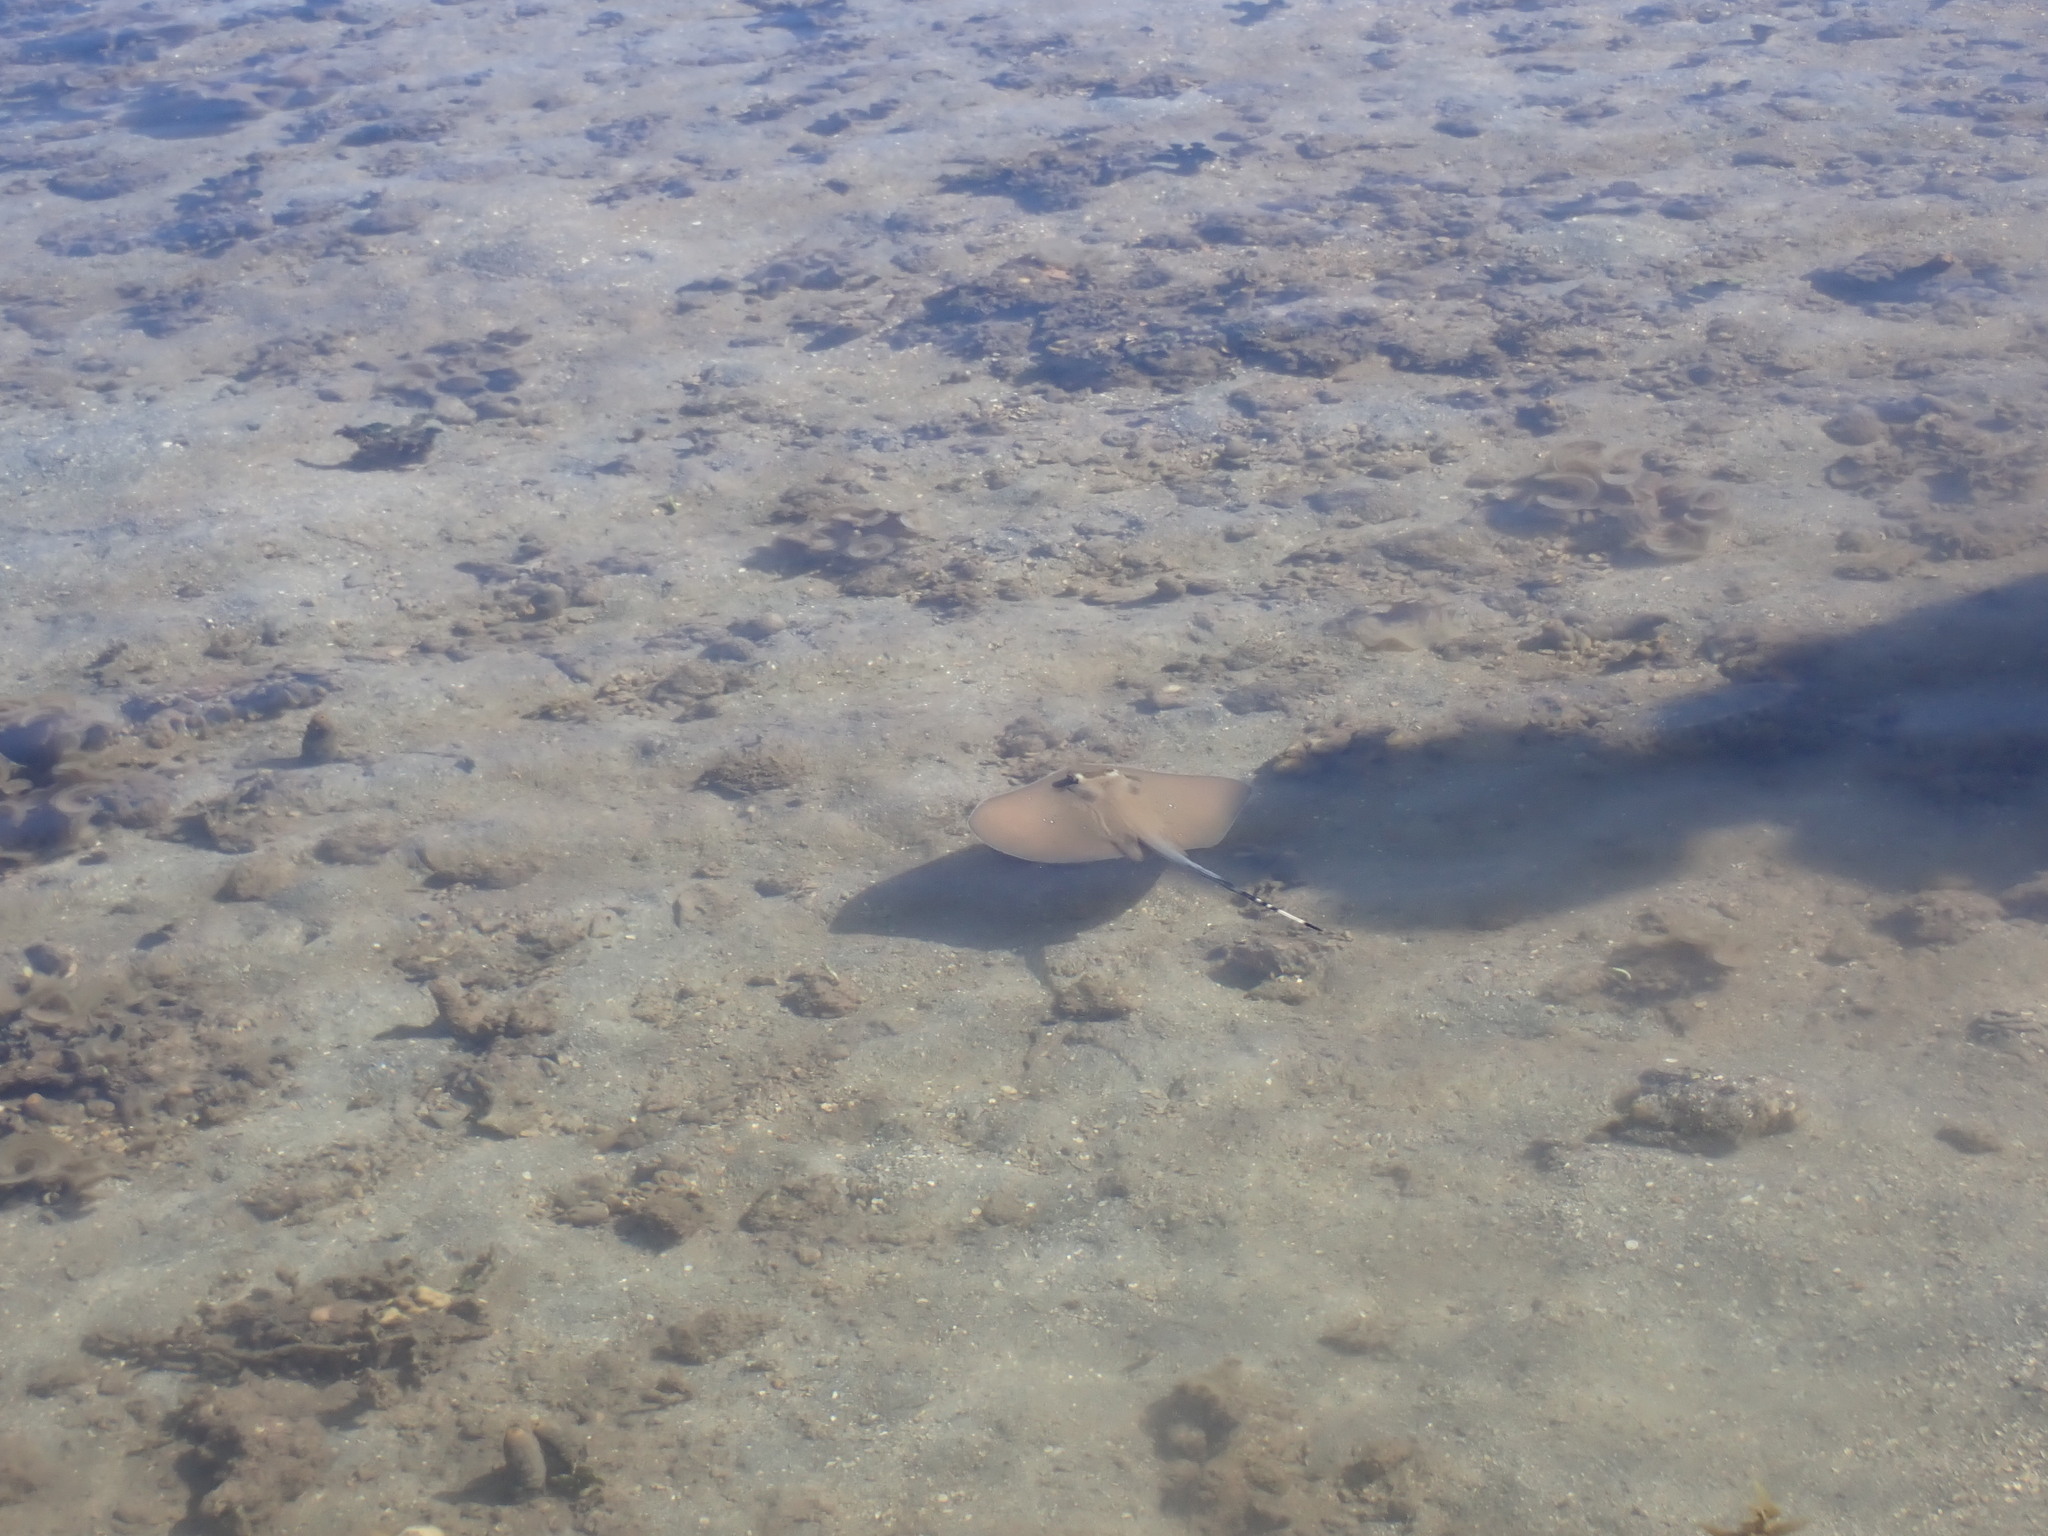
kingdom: Animalia
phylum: Chordata
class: Elasmobranchii
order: Myliobatiformes
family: Dasyatidae
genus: Neotrygon
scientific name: Neotrygon kuhlii
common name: Bluespotted stingray
